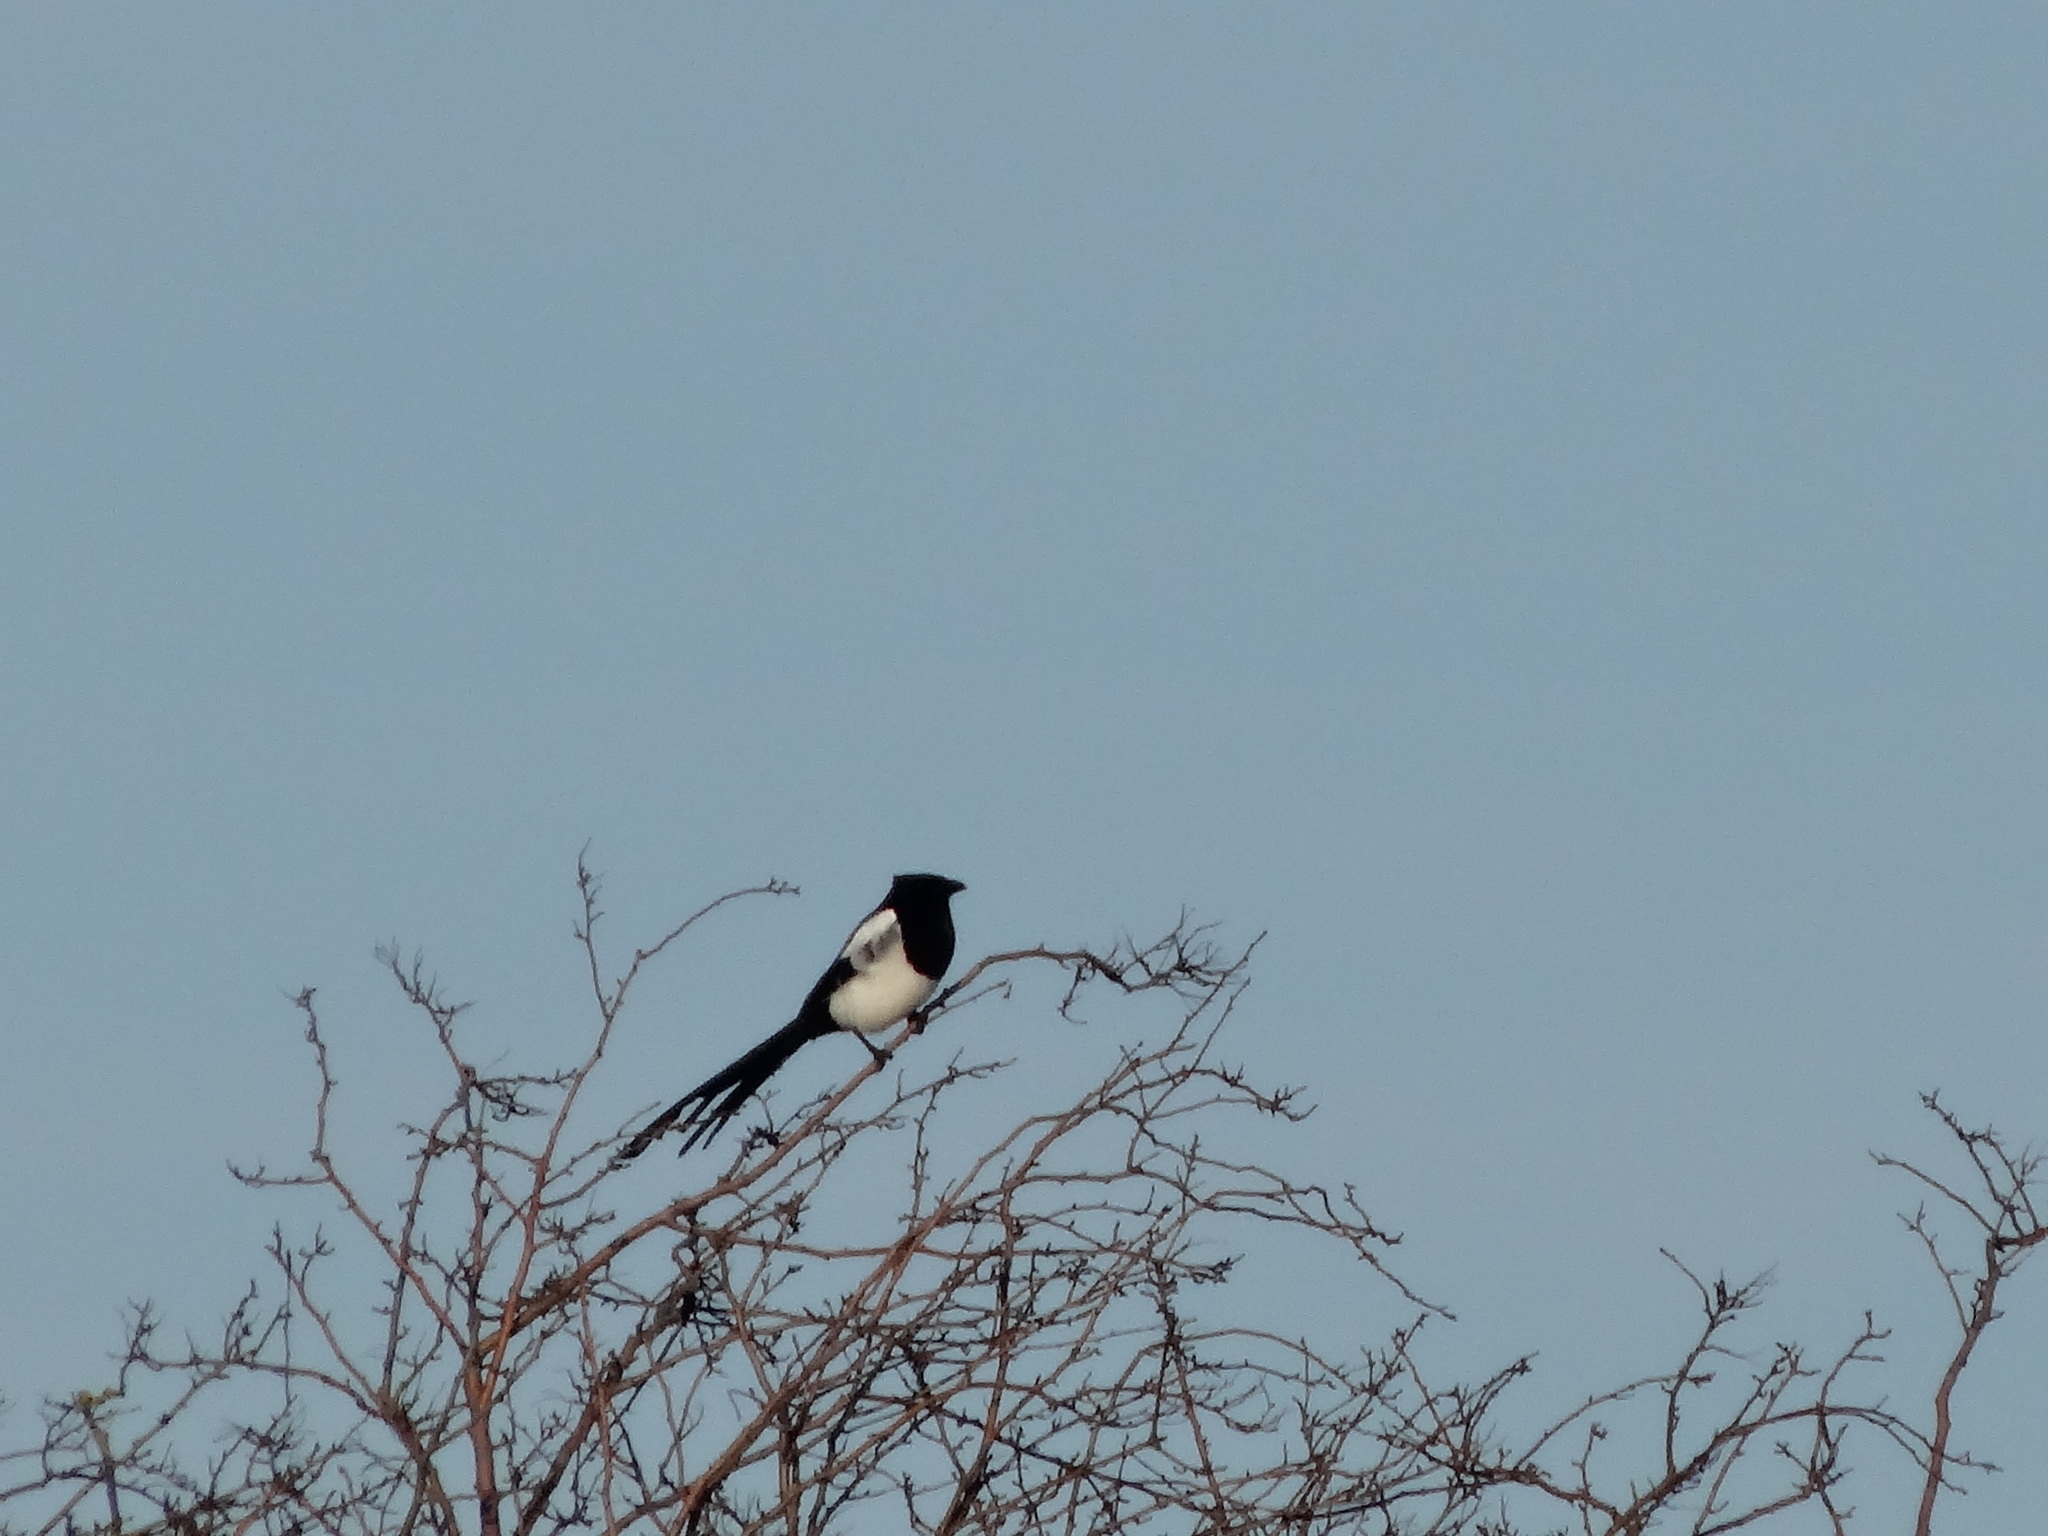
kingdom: Animalia
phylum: Chordata
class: Aves
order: Passeriformes
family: Corvidae
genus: Pica
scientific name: Pica pica
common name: Eurasian magpie
